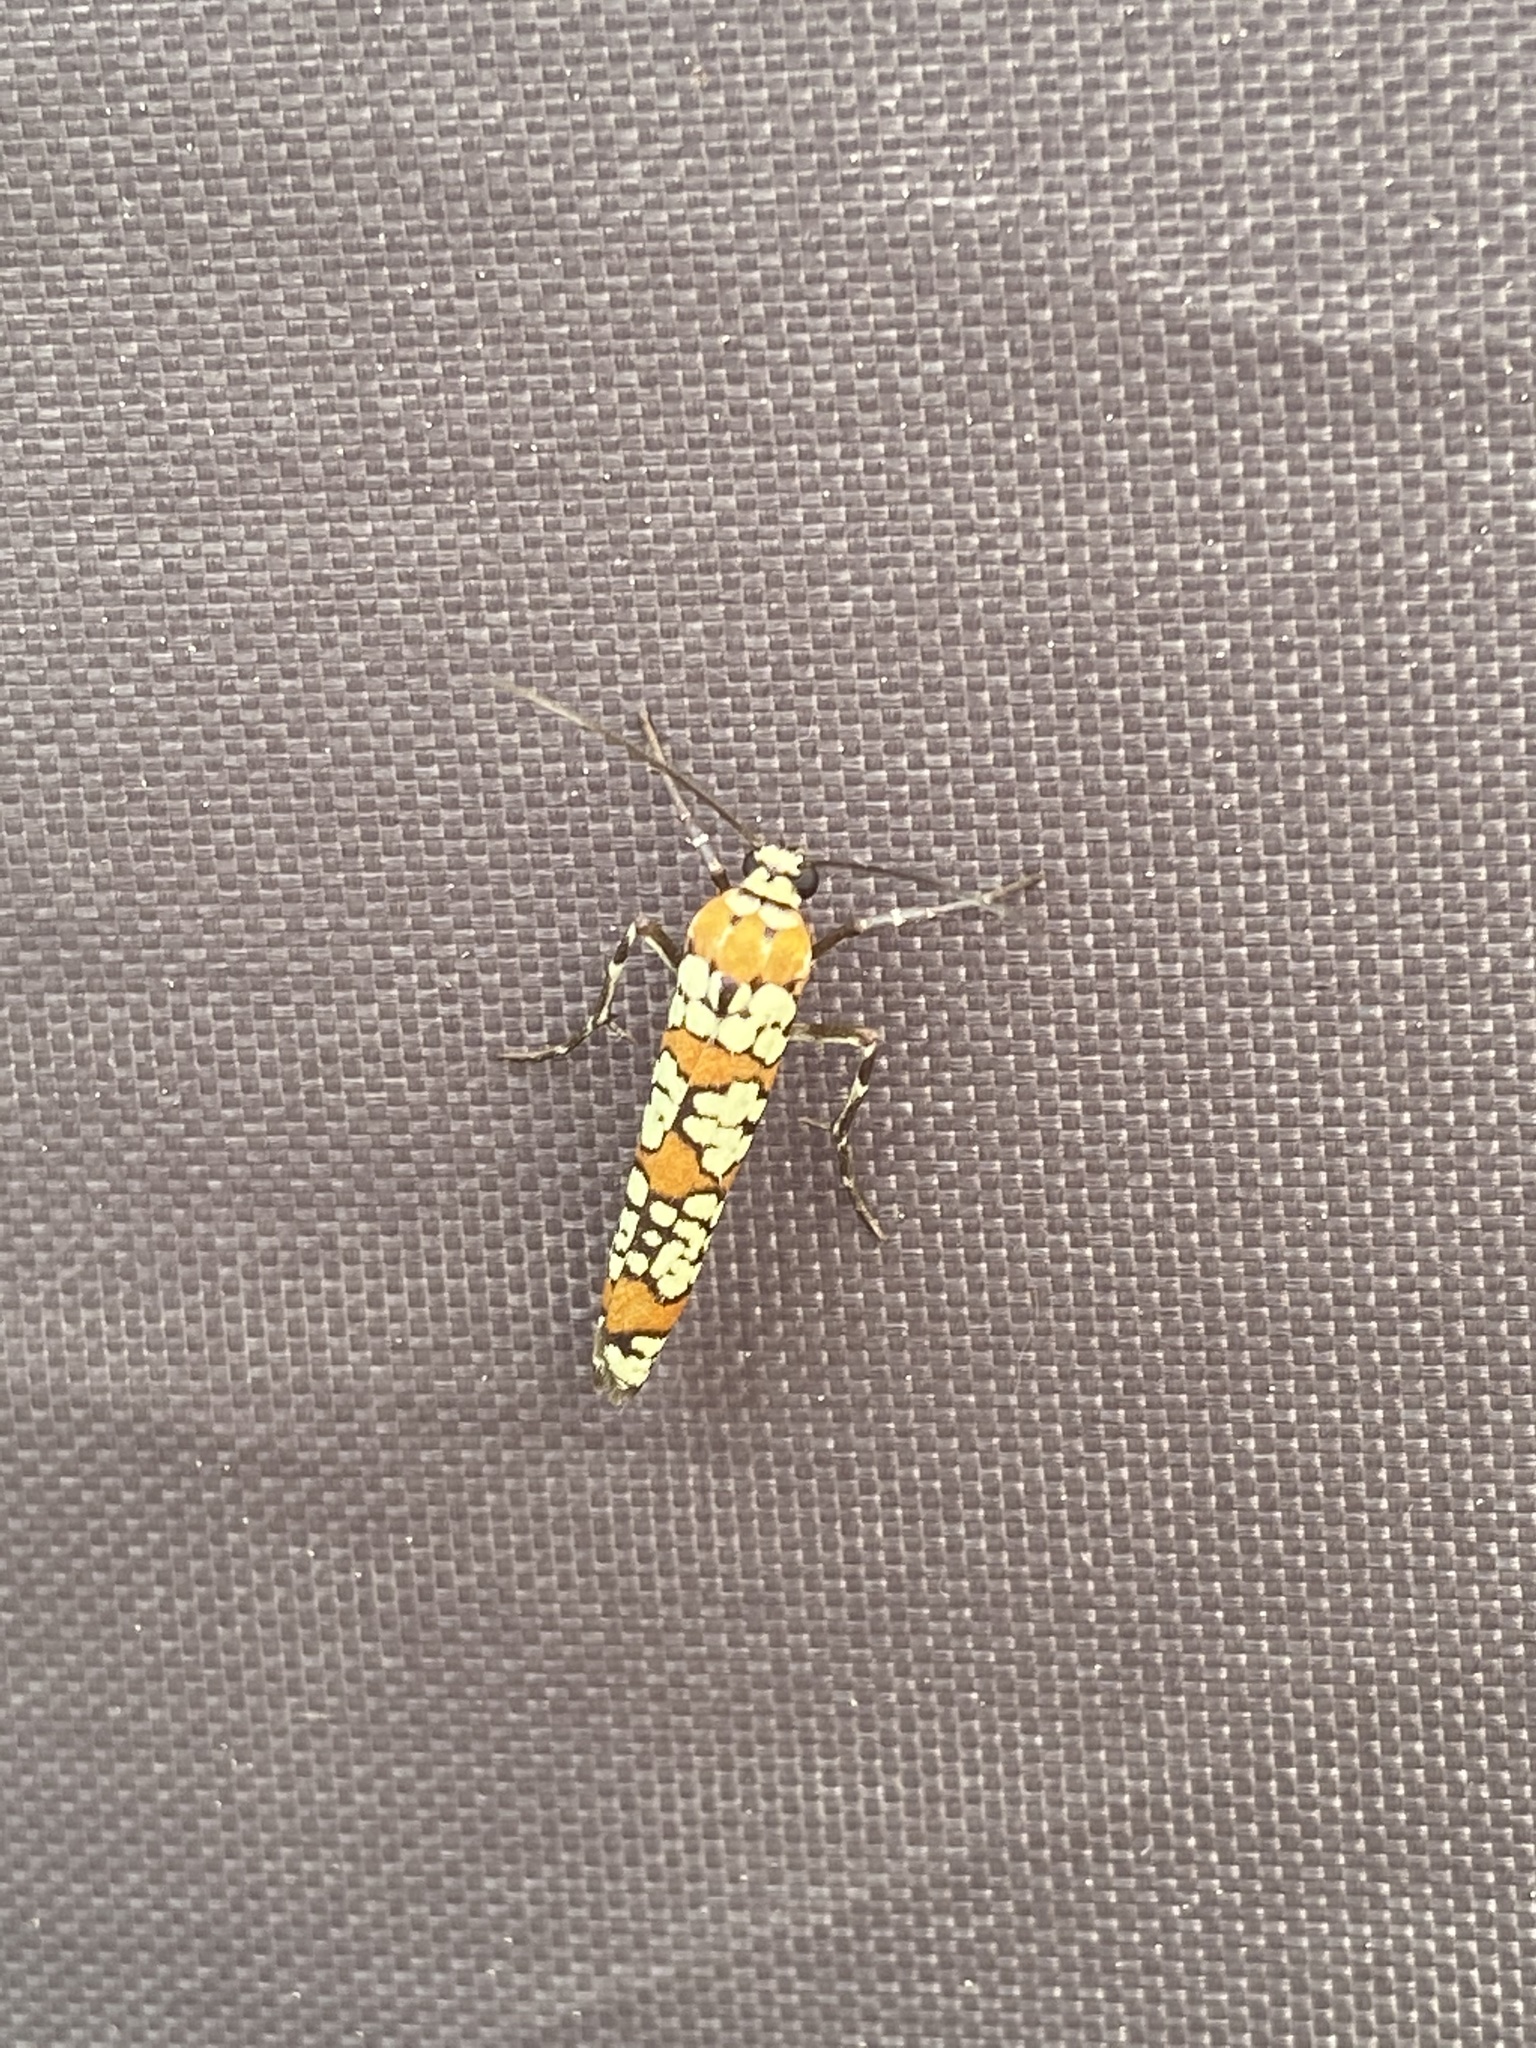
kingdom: Animalia
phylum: Arthropoda
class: Insecta
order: Lepidoptera
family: Attevidae
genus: Atteva
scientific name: Atteva punctella
